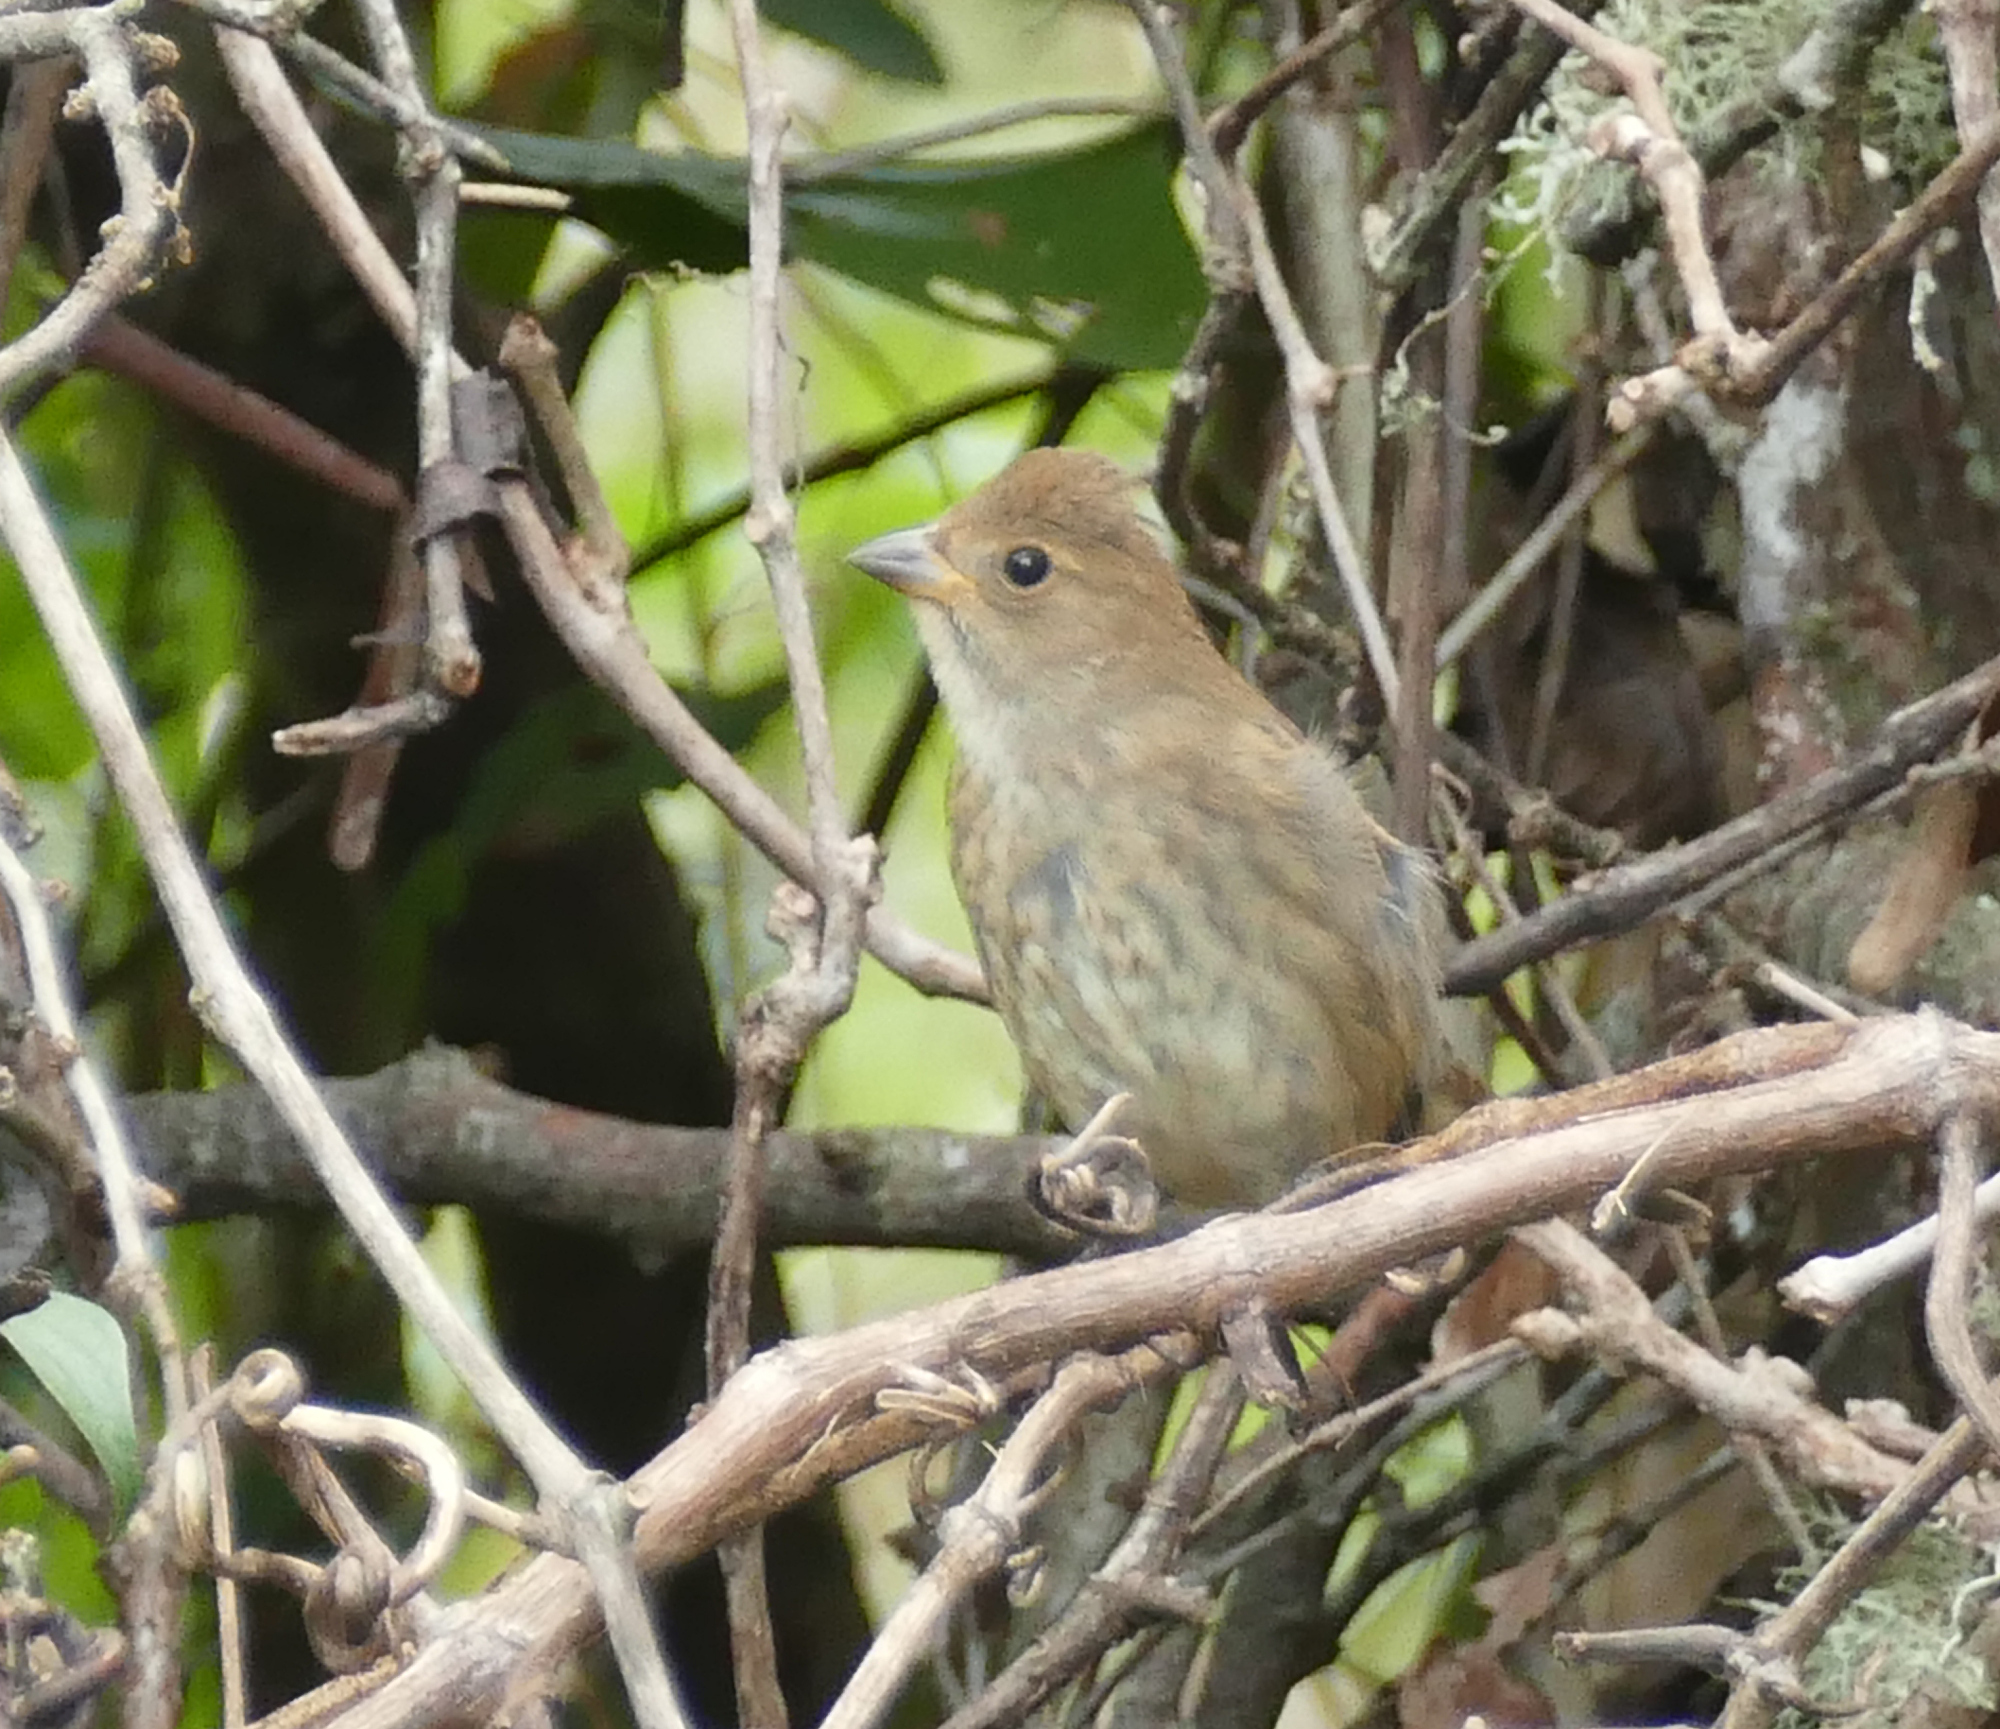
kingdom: Animalia
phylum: Chordata
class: Aves
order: Passeriformes
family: Cardinalidae
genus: Passerina
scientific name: Passerina cyanea
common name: Indigo bunting
